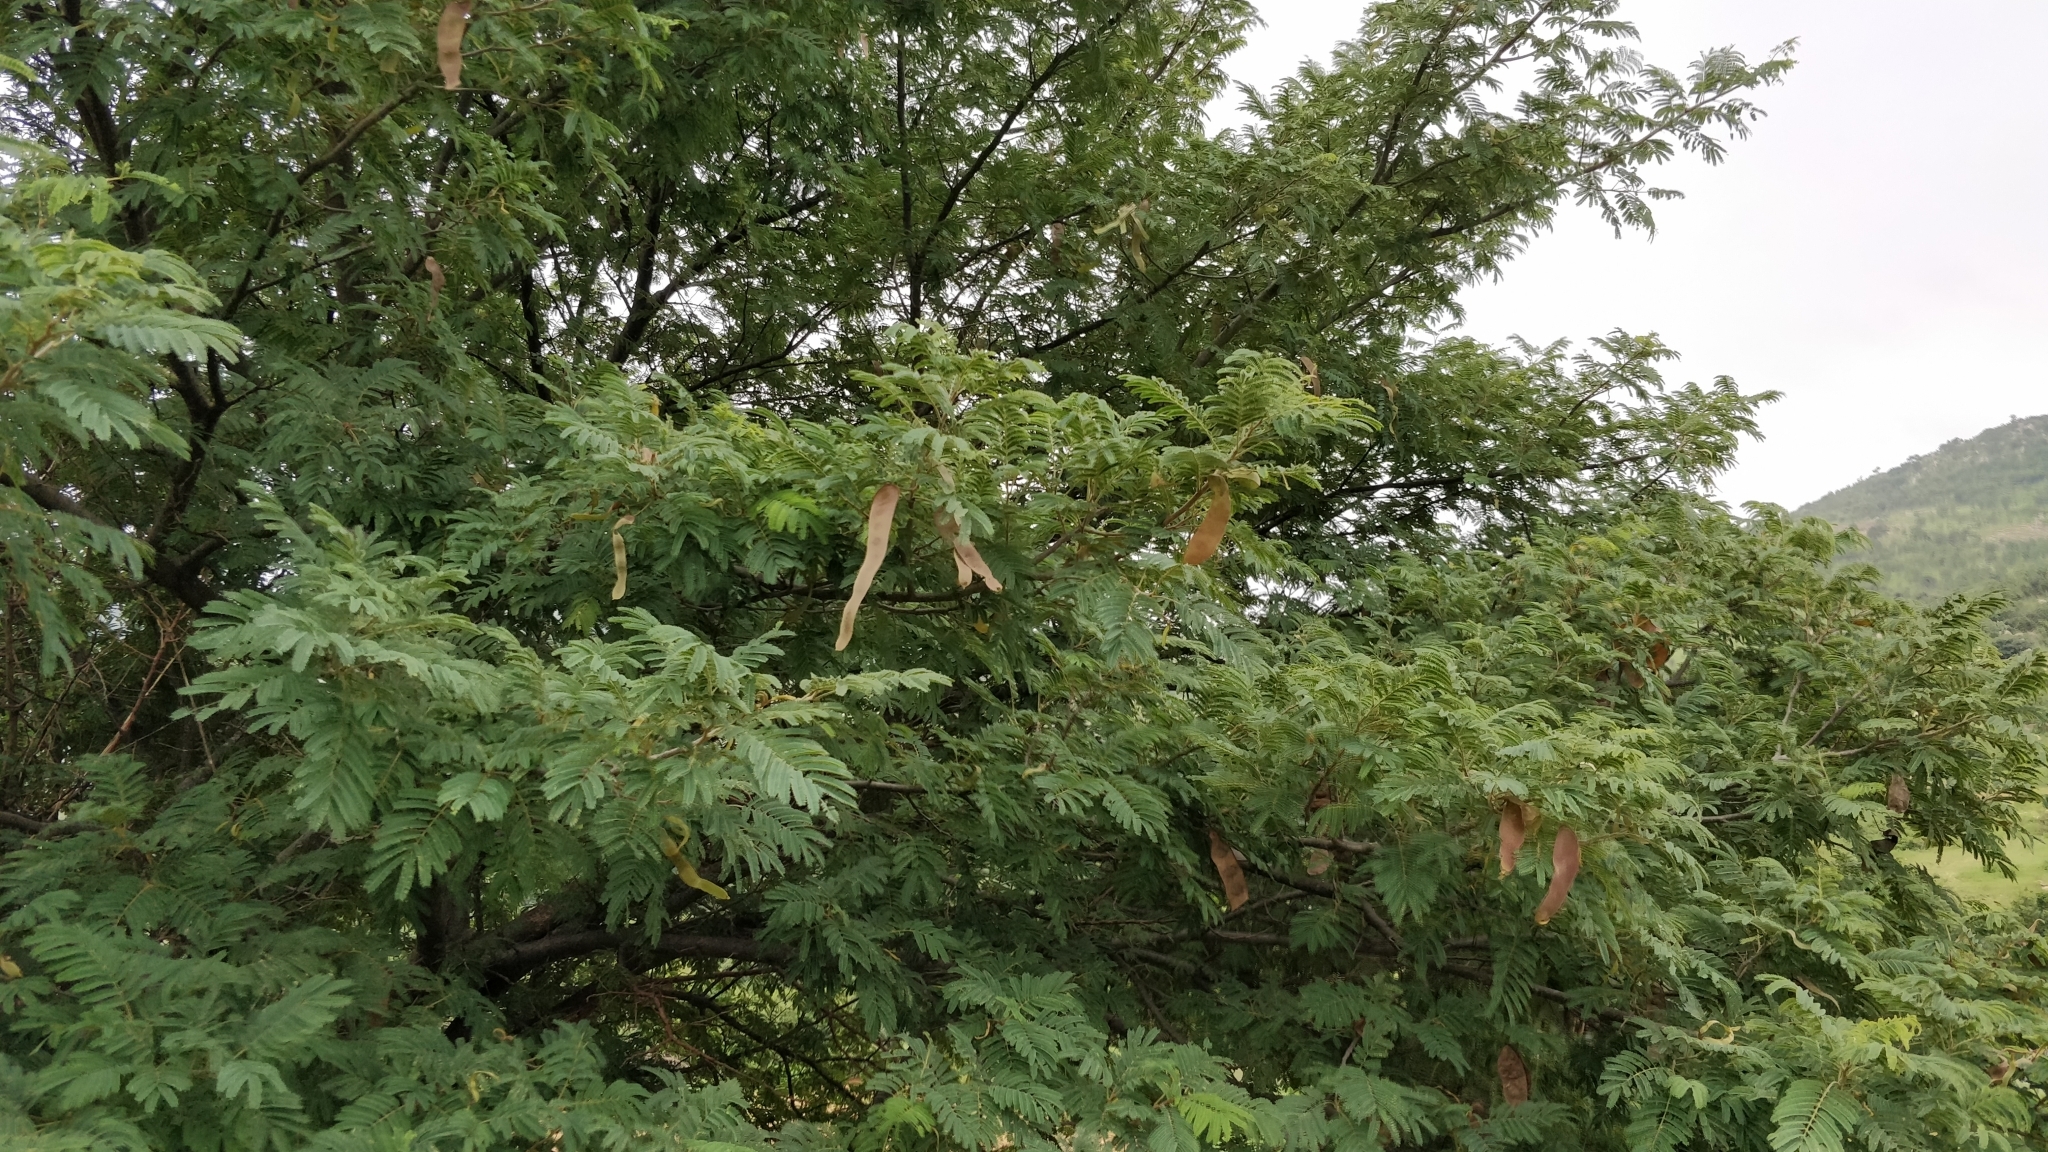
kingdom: Plantae
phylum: Tracheophyta
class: Magnoliopsida
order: Fabales
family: Fabaceae
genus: Albizia
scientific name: Albizia amara
